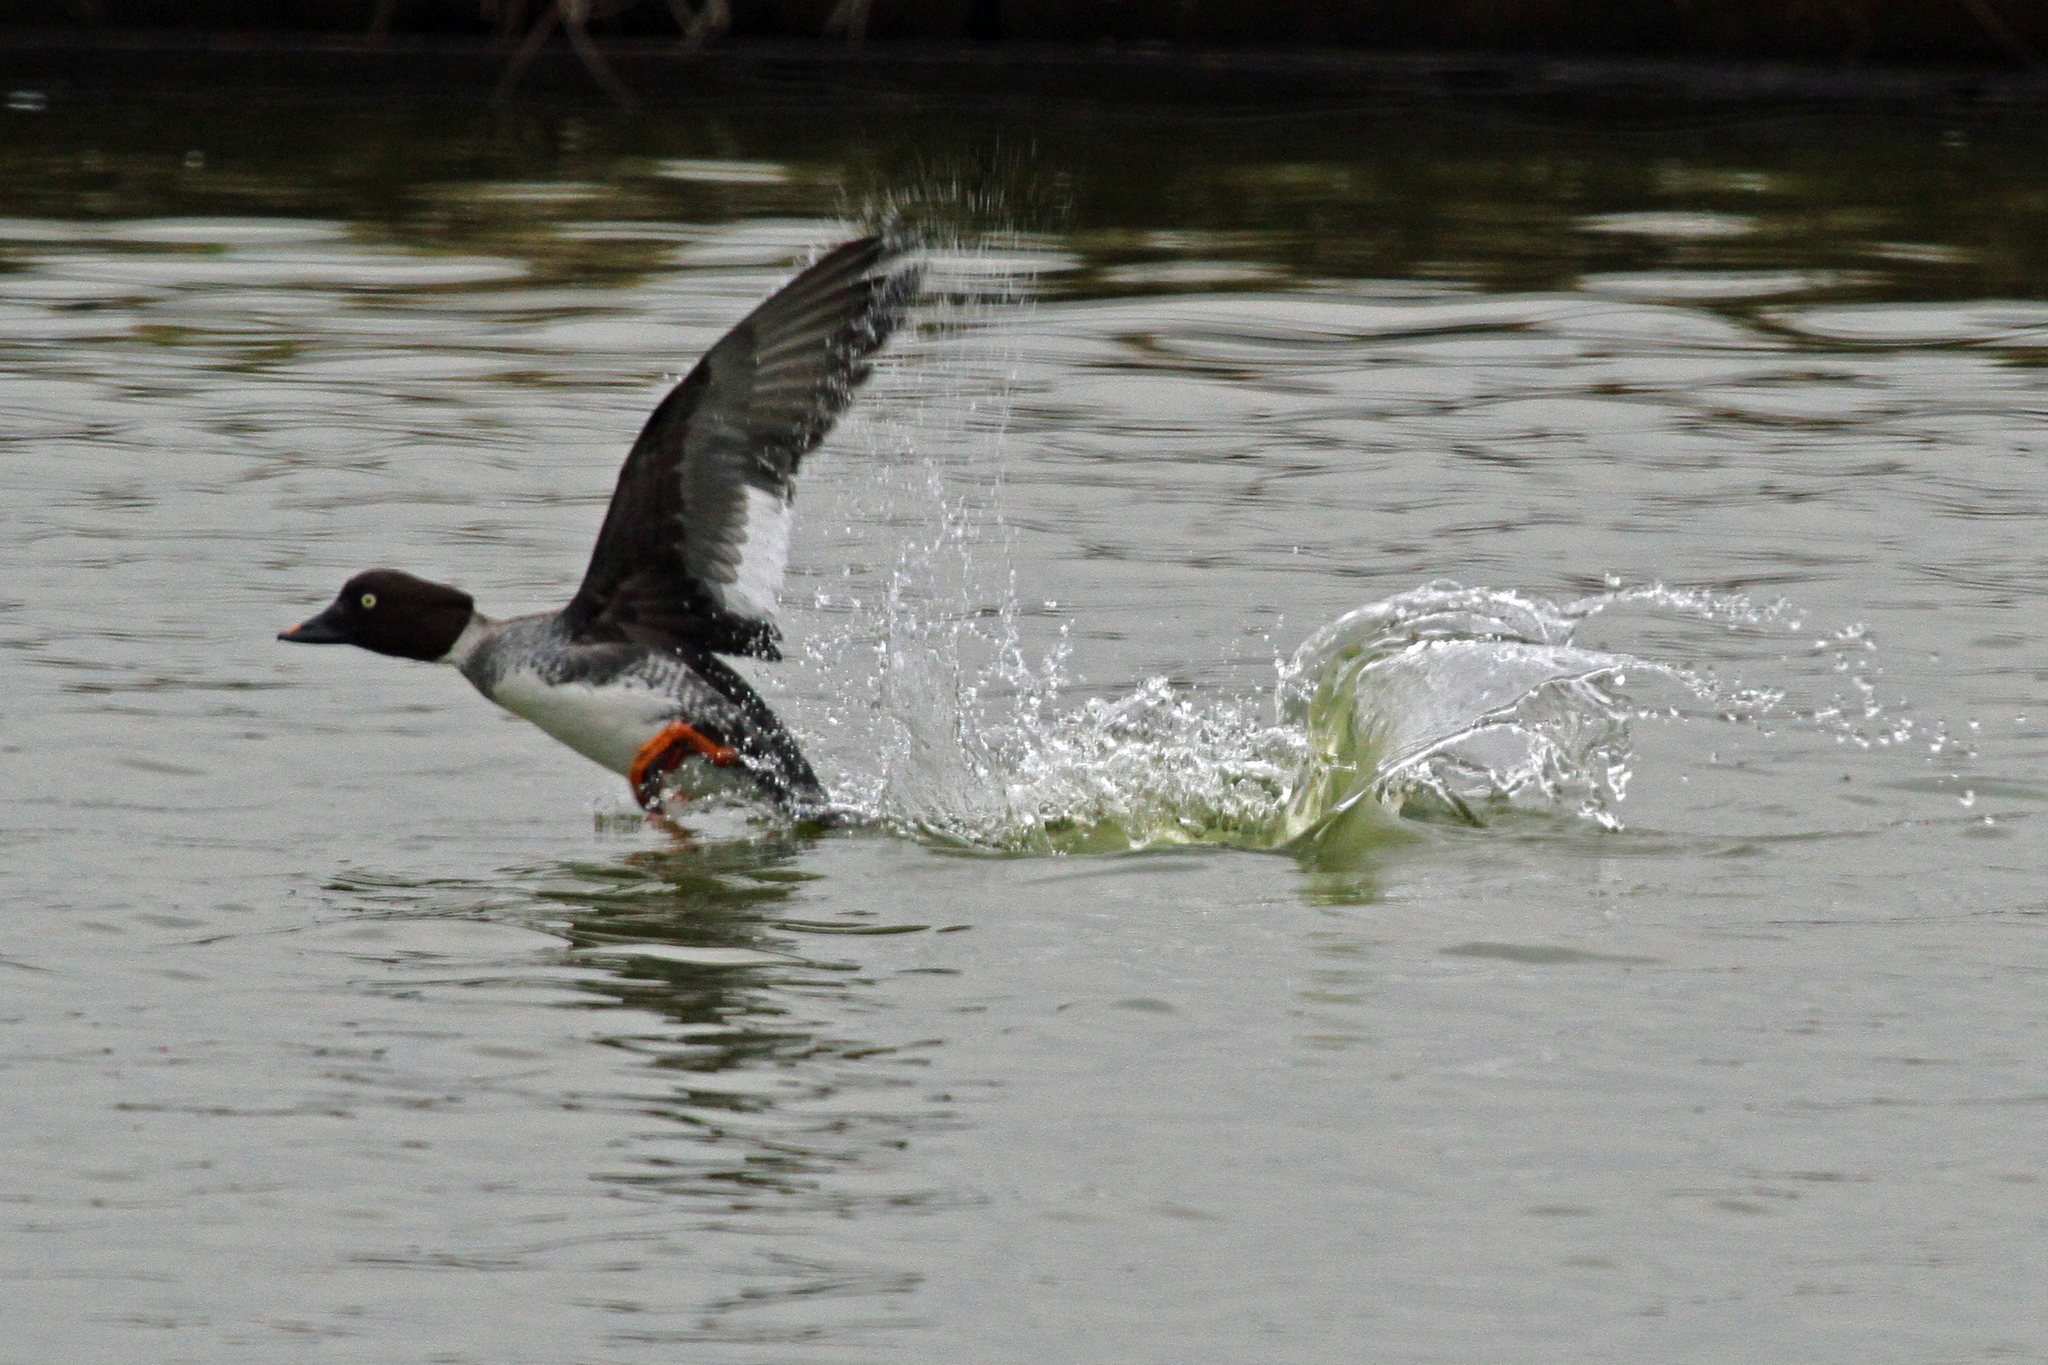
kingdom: Animalia
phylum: Chordata
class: Aves
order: Anseriformes
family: Anatidae
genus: Bucephala
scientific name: Bucephala clangula
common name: Common goldeneye
